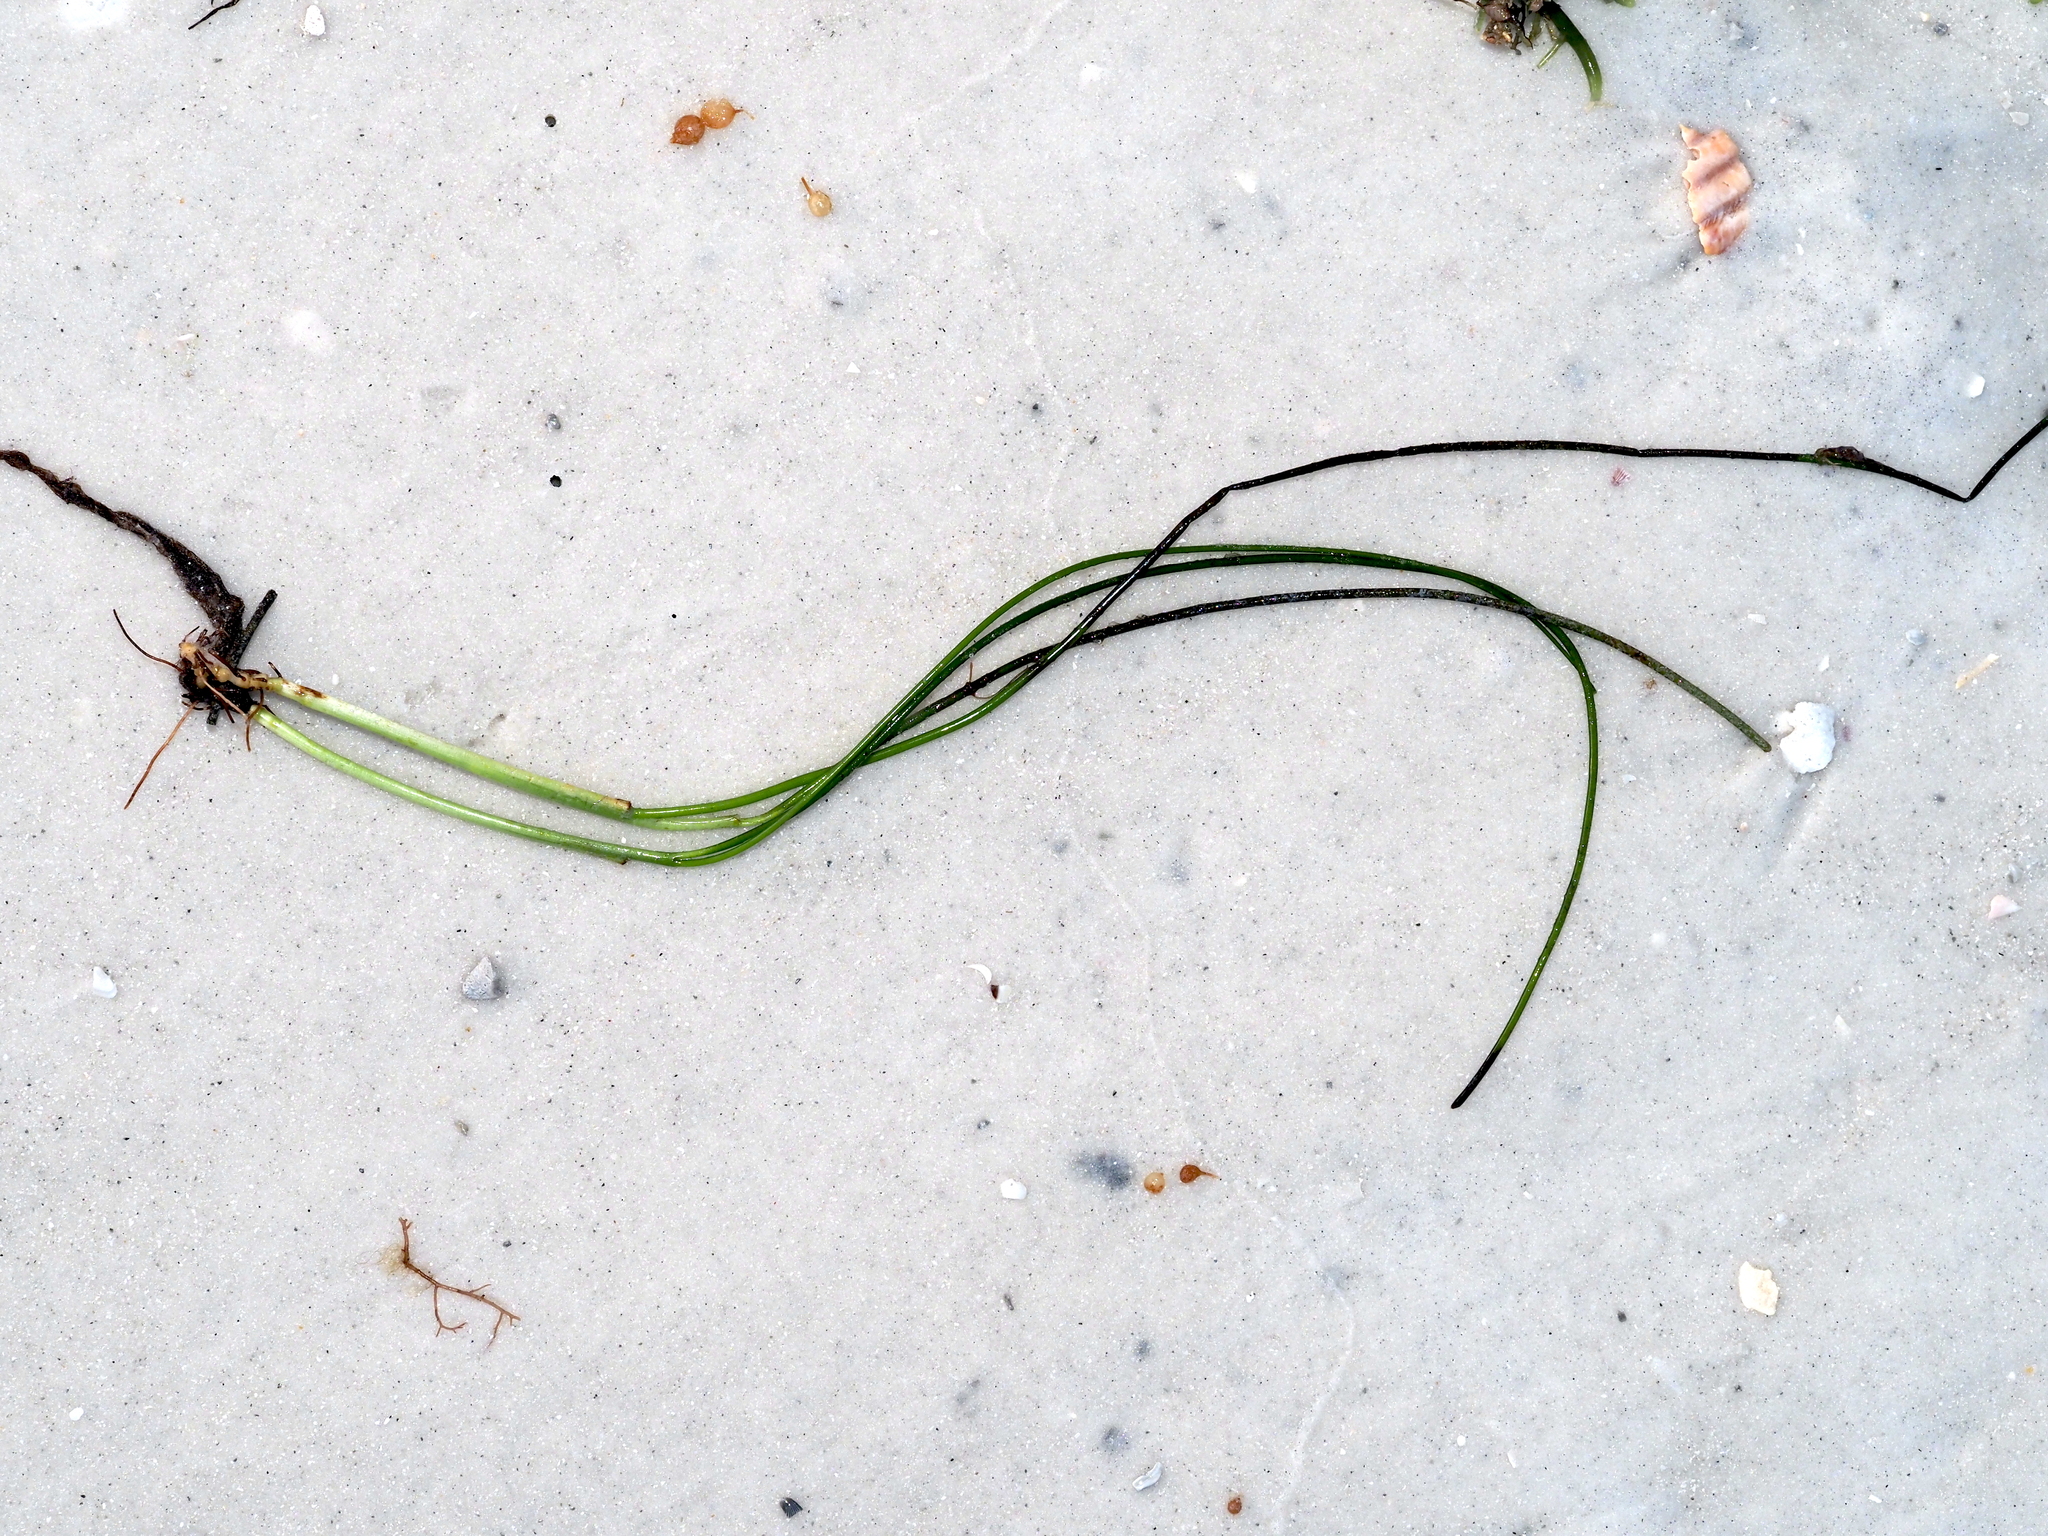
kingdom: Plantae
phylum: Tracheophyta
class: Liliopsida
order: Alismatales
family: Cymodoceaceae
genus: Syringodium
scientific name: Syringodium filiforme
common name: Manatee grass
